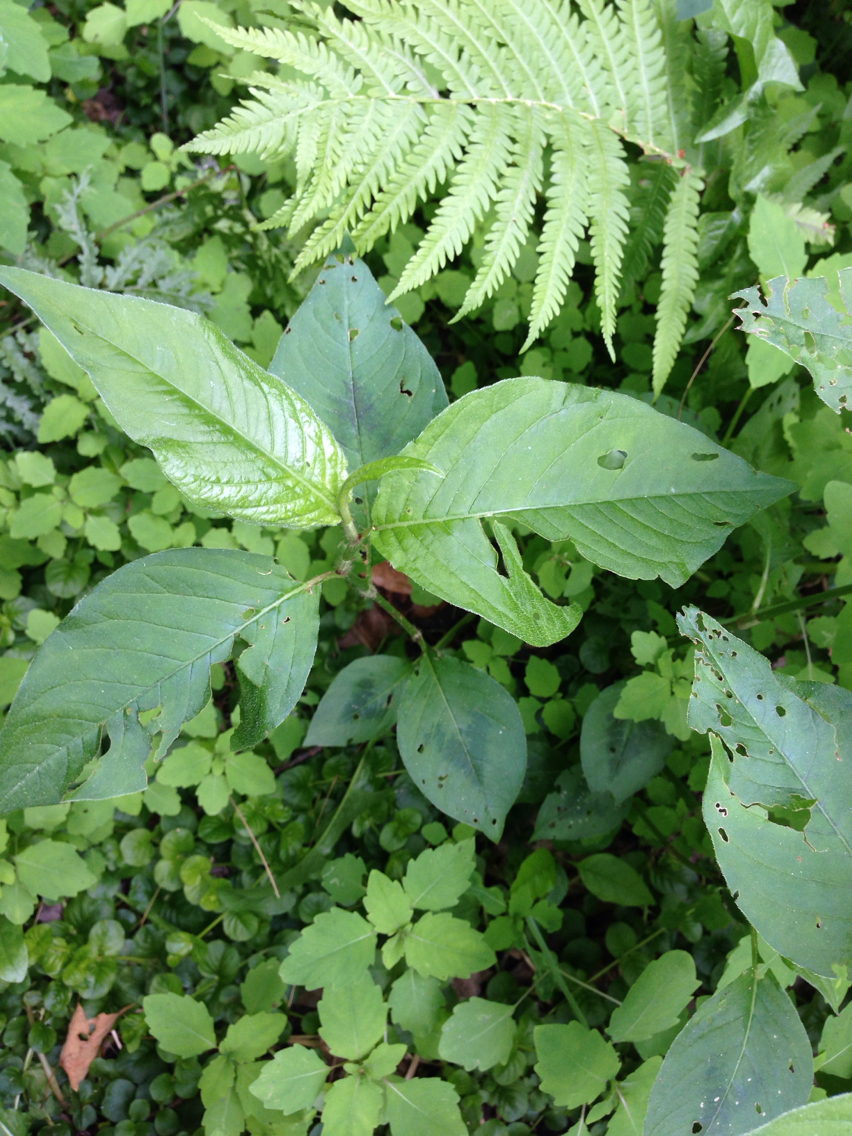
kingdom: Plantae
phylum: Tracheophyta
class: Magnoliopsida
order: Caryophyllales
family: Polygonaceae
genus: Persicaria
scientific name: Persicaria virginiana
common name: Jumpseed
